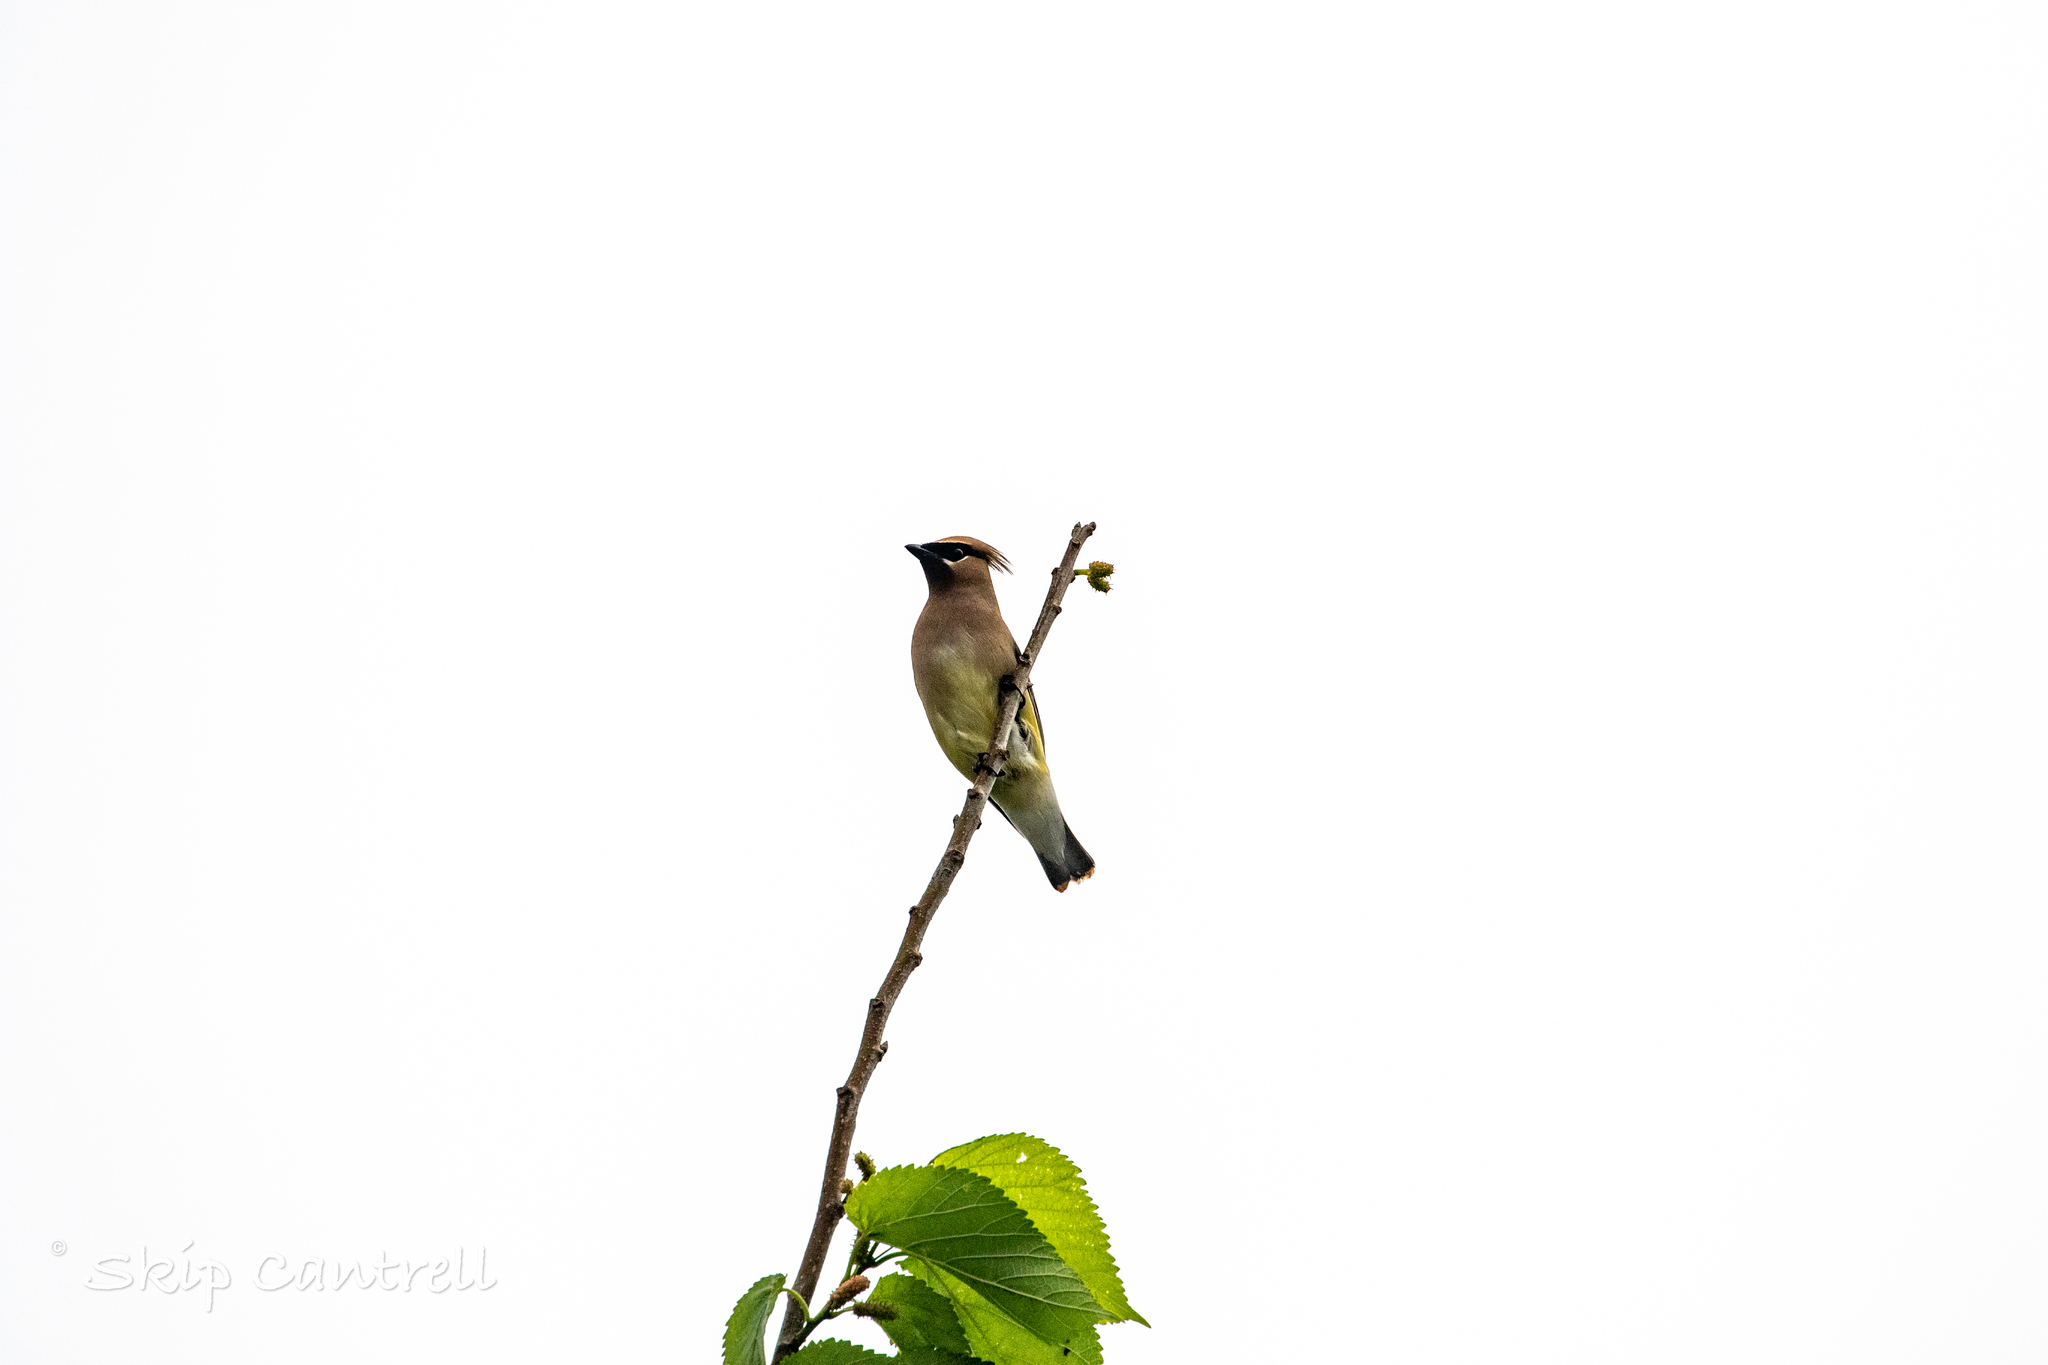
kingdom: Animalia
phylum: Chordata
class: Aves
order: Passeriformes
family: Bombycillidae
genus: Bombycilla
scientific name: Bombycilla cedrorum
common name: Cedar waxwing
